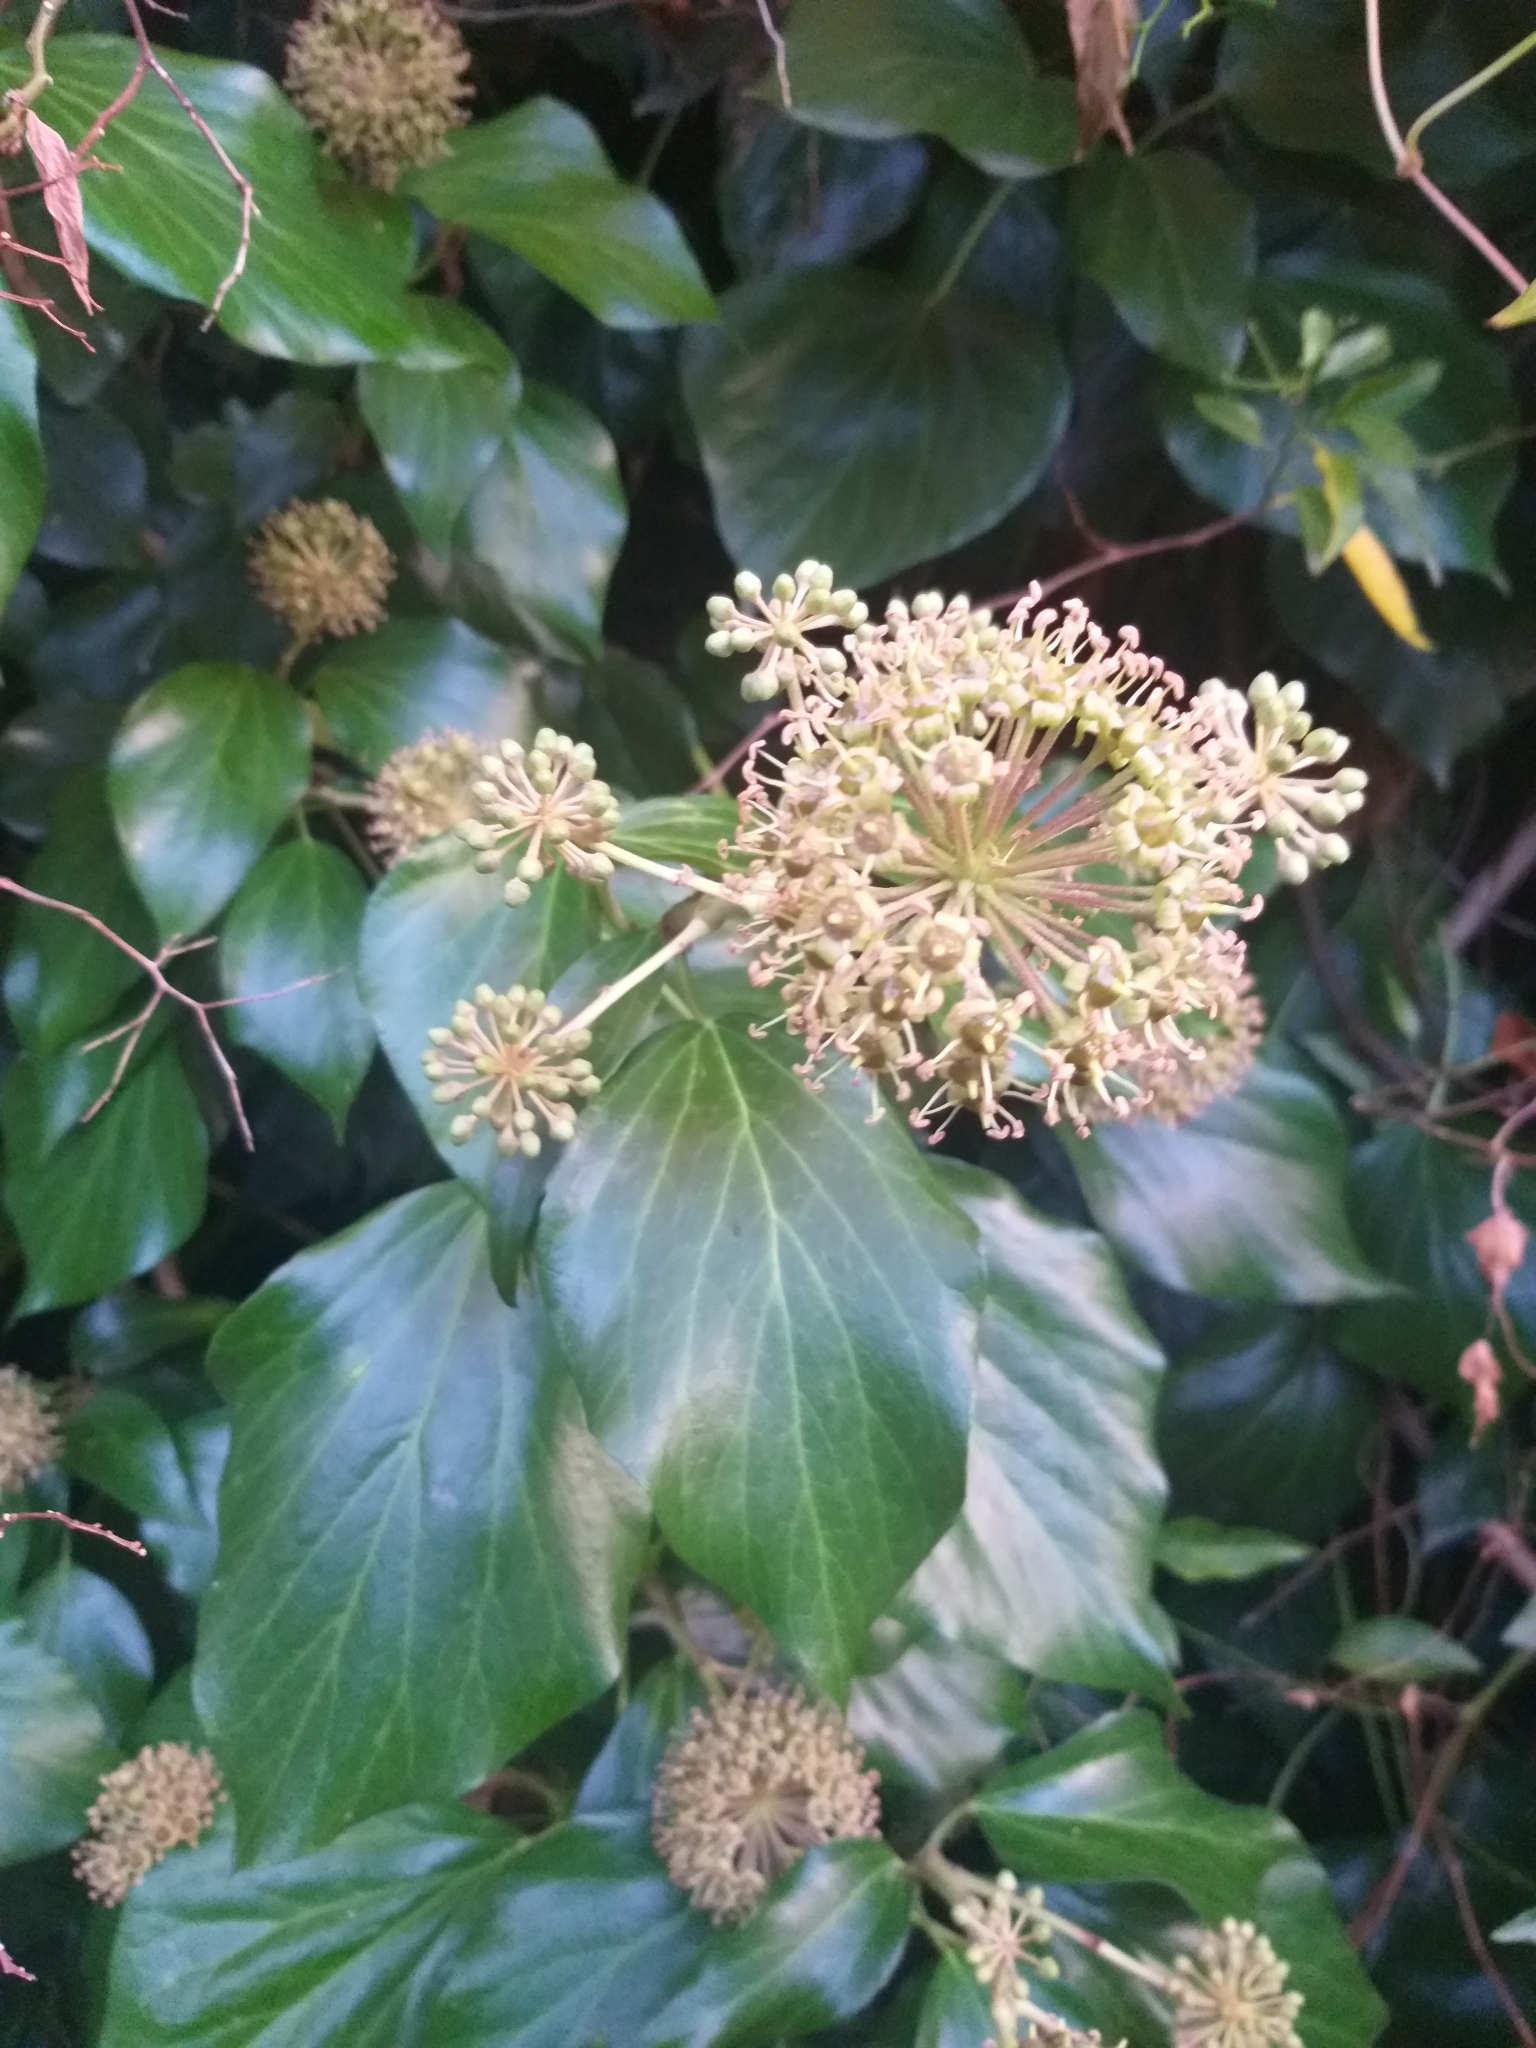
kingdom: Plantae
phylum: Tracheophyta
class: Magnoliopsida
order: Apiales
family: Araliaceae
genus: Hedera
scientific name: Hedera
